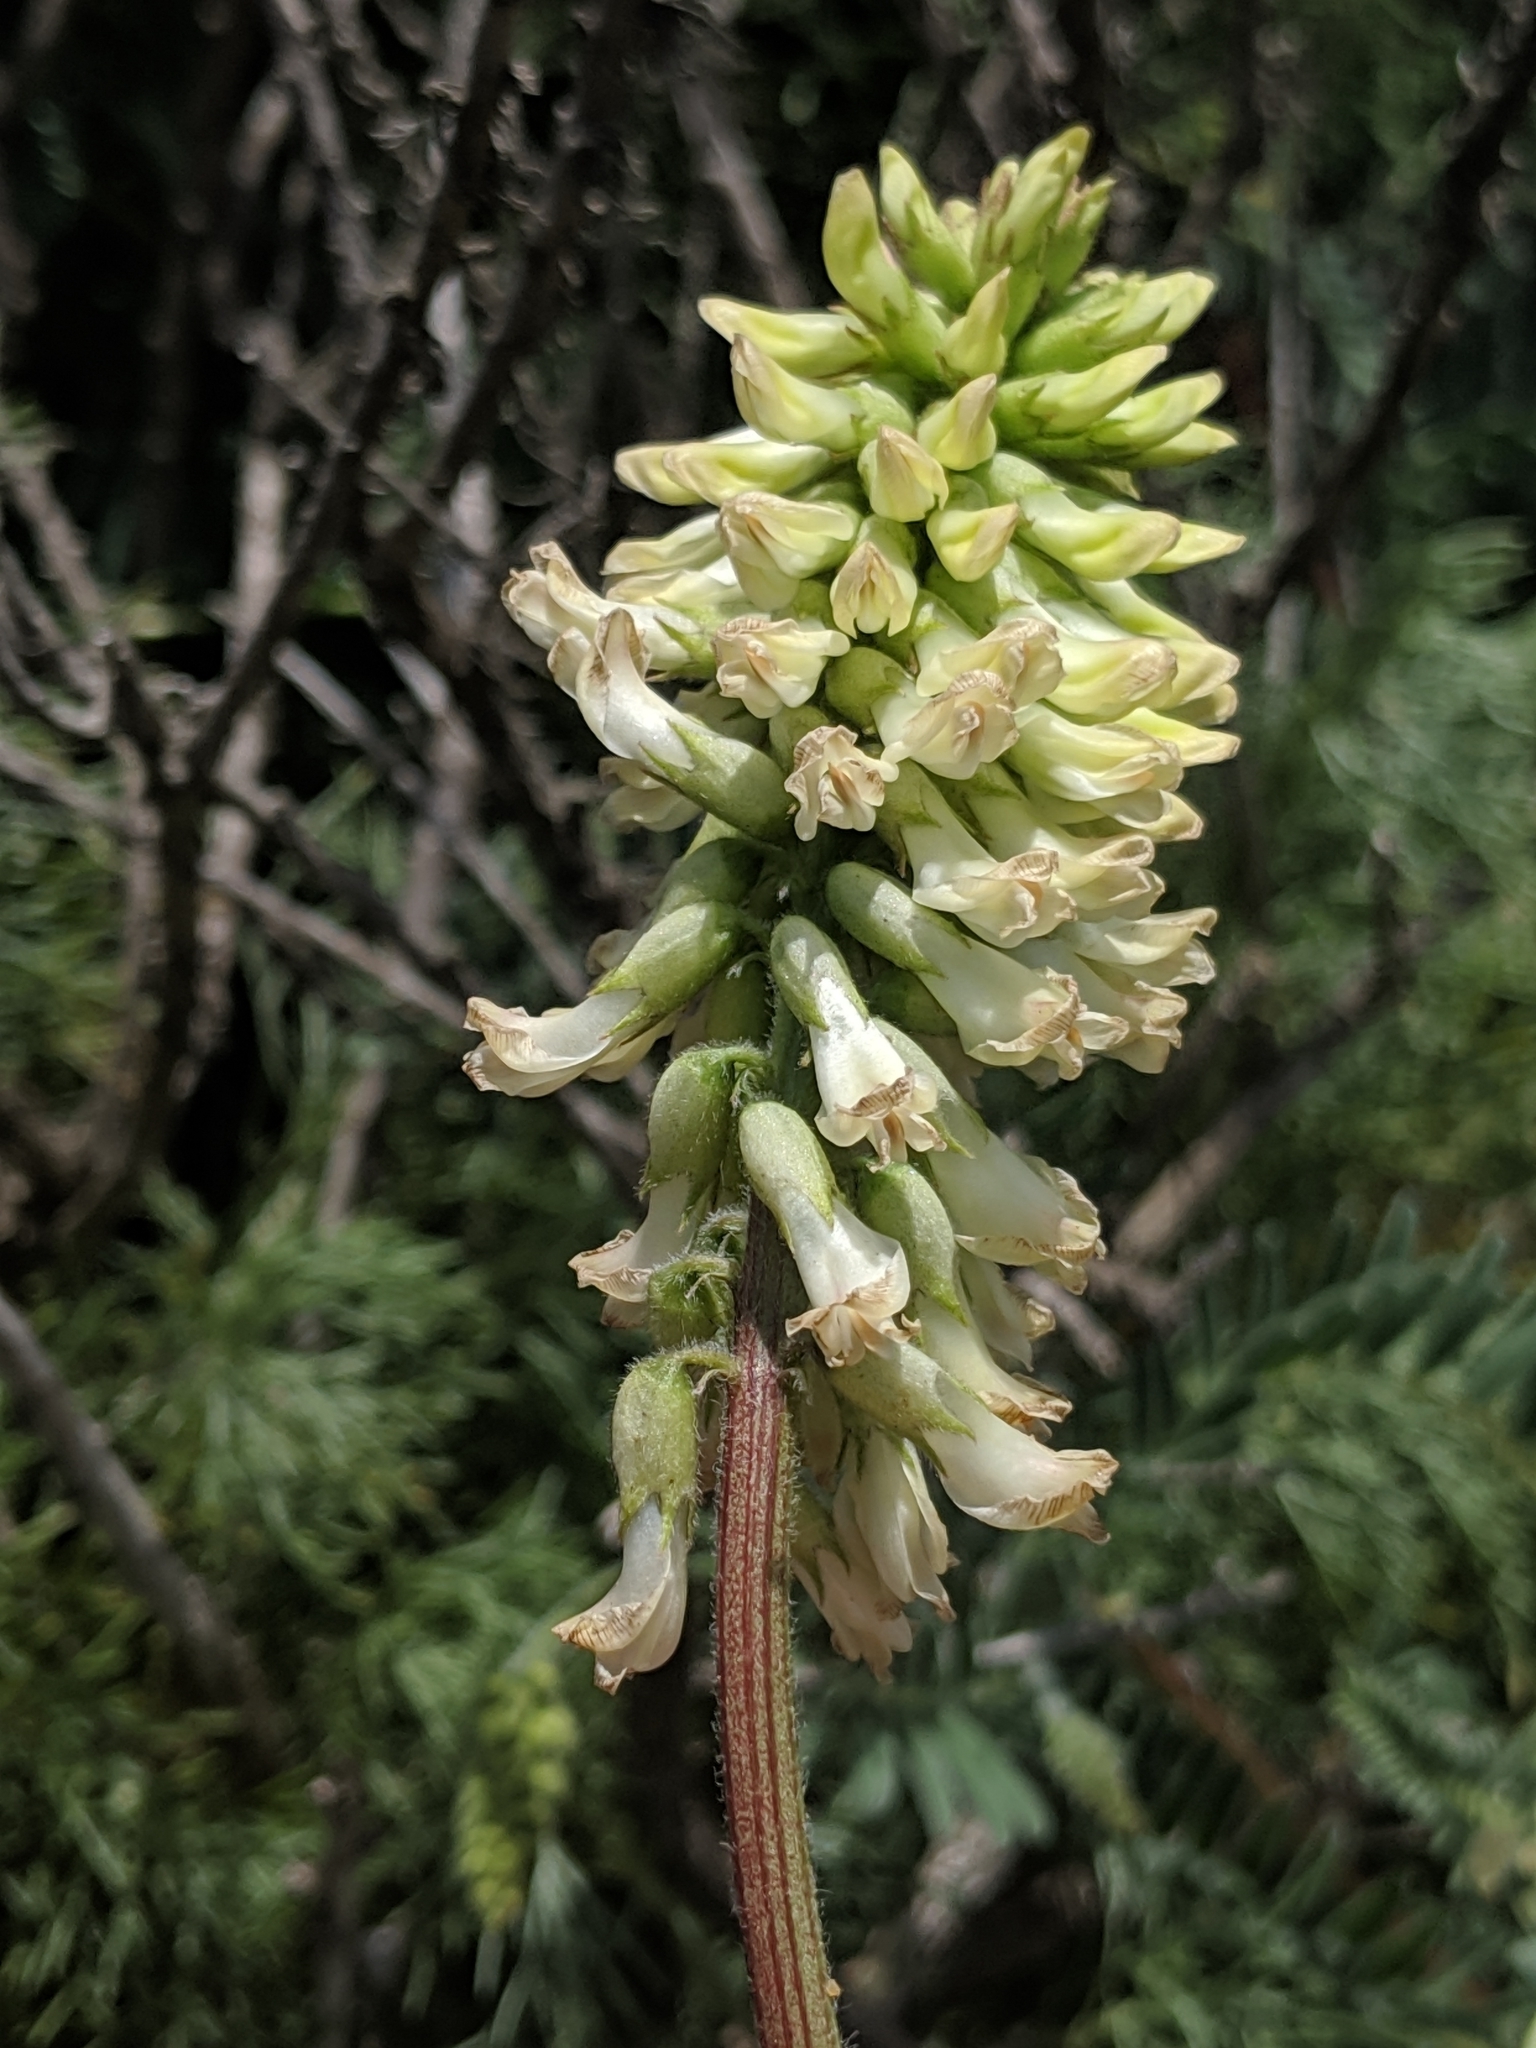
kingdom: Plantae
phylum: Tracheophyta
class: Magnoliopsida
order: Fabales
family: Fabaceae
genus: Astragalus
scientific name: Astragalus nuttallii
